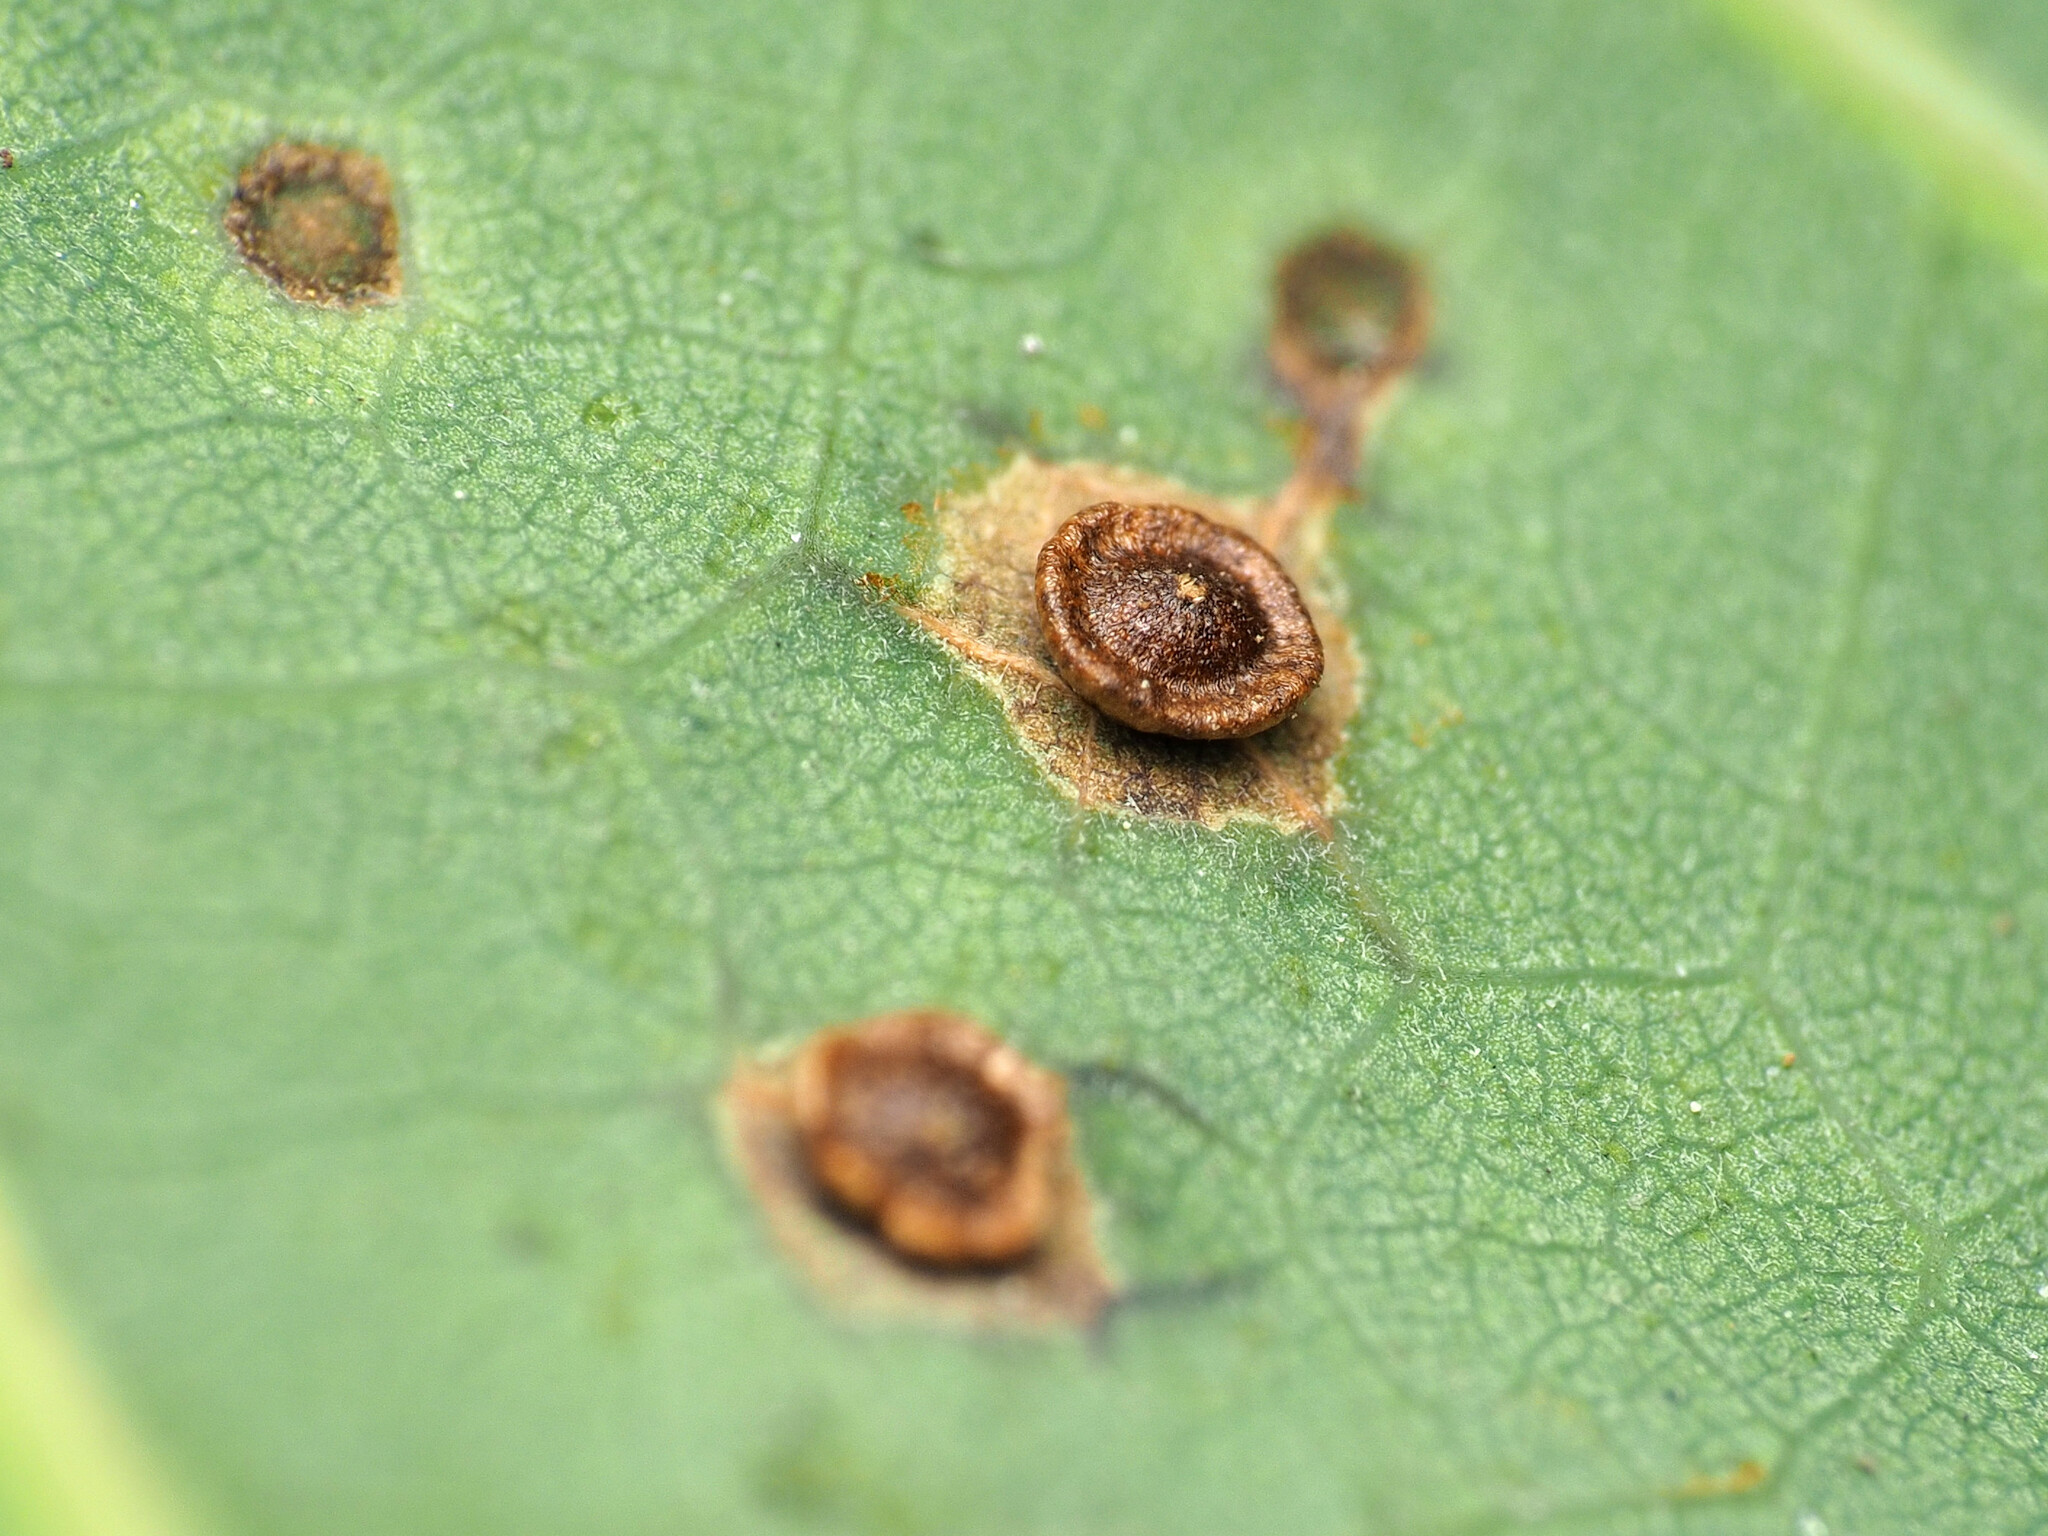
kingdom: Animalia
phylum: Arthropoda
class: Insecta
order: Hymenoptera
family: Cynipidae
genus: Neuroterus
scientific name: Neuroterus
